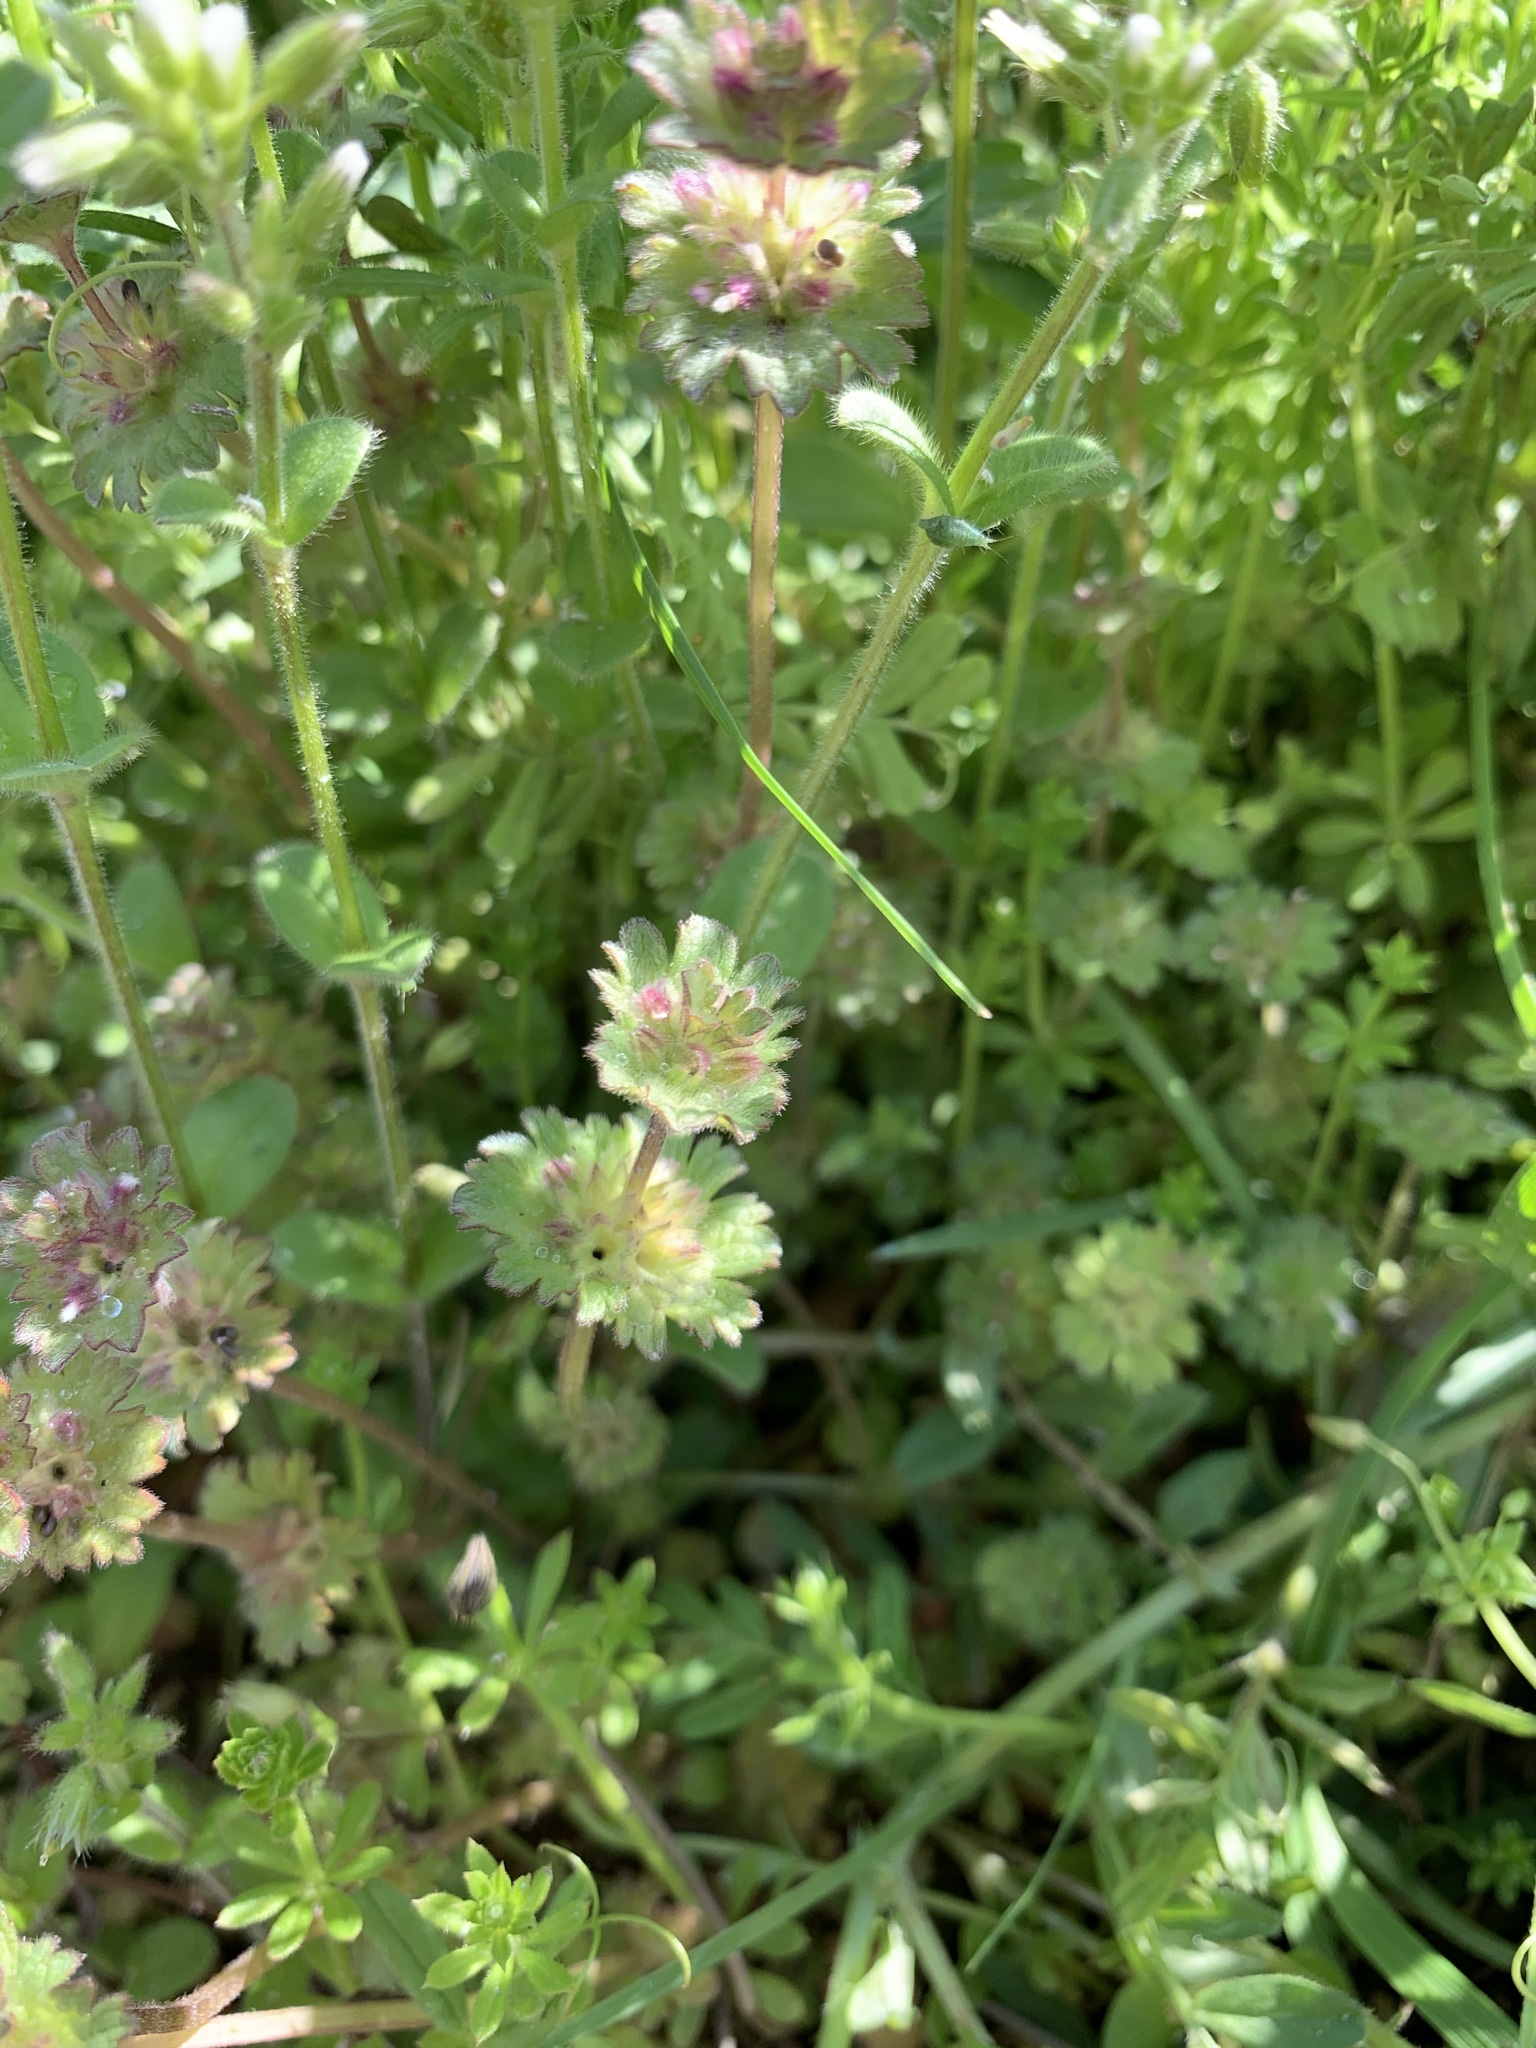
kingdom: Plantae
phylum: Tracheophyta
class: Magnoliopsida
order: Lamiales
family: Lamiaceae
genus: Lamium
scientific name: Lamium amplexicaule
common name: Henbit dead-nettle
